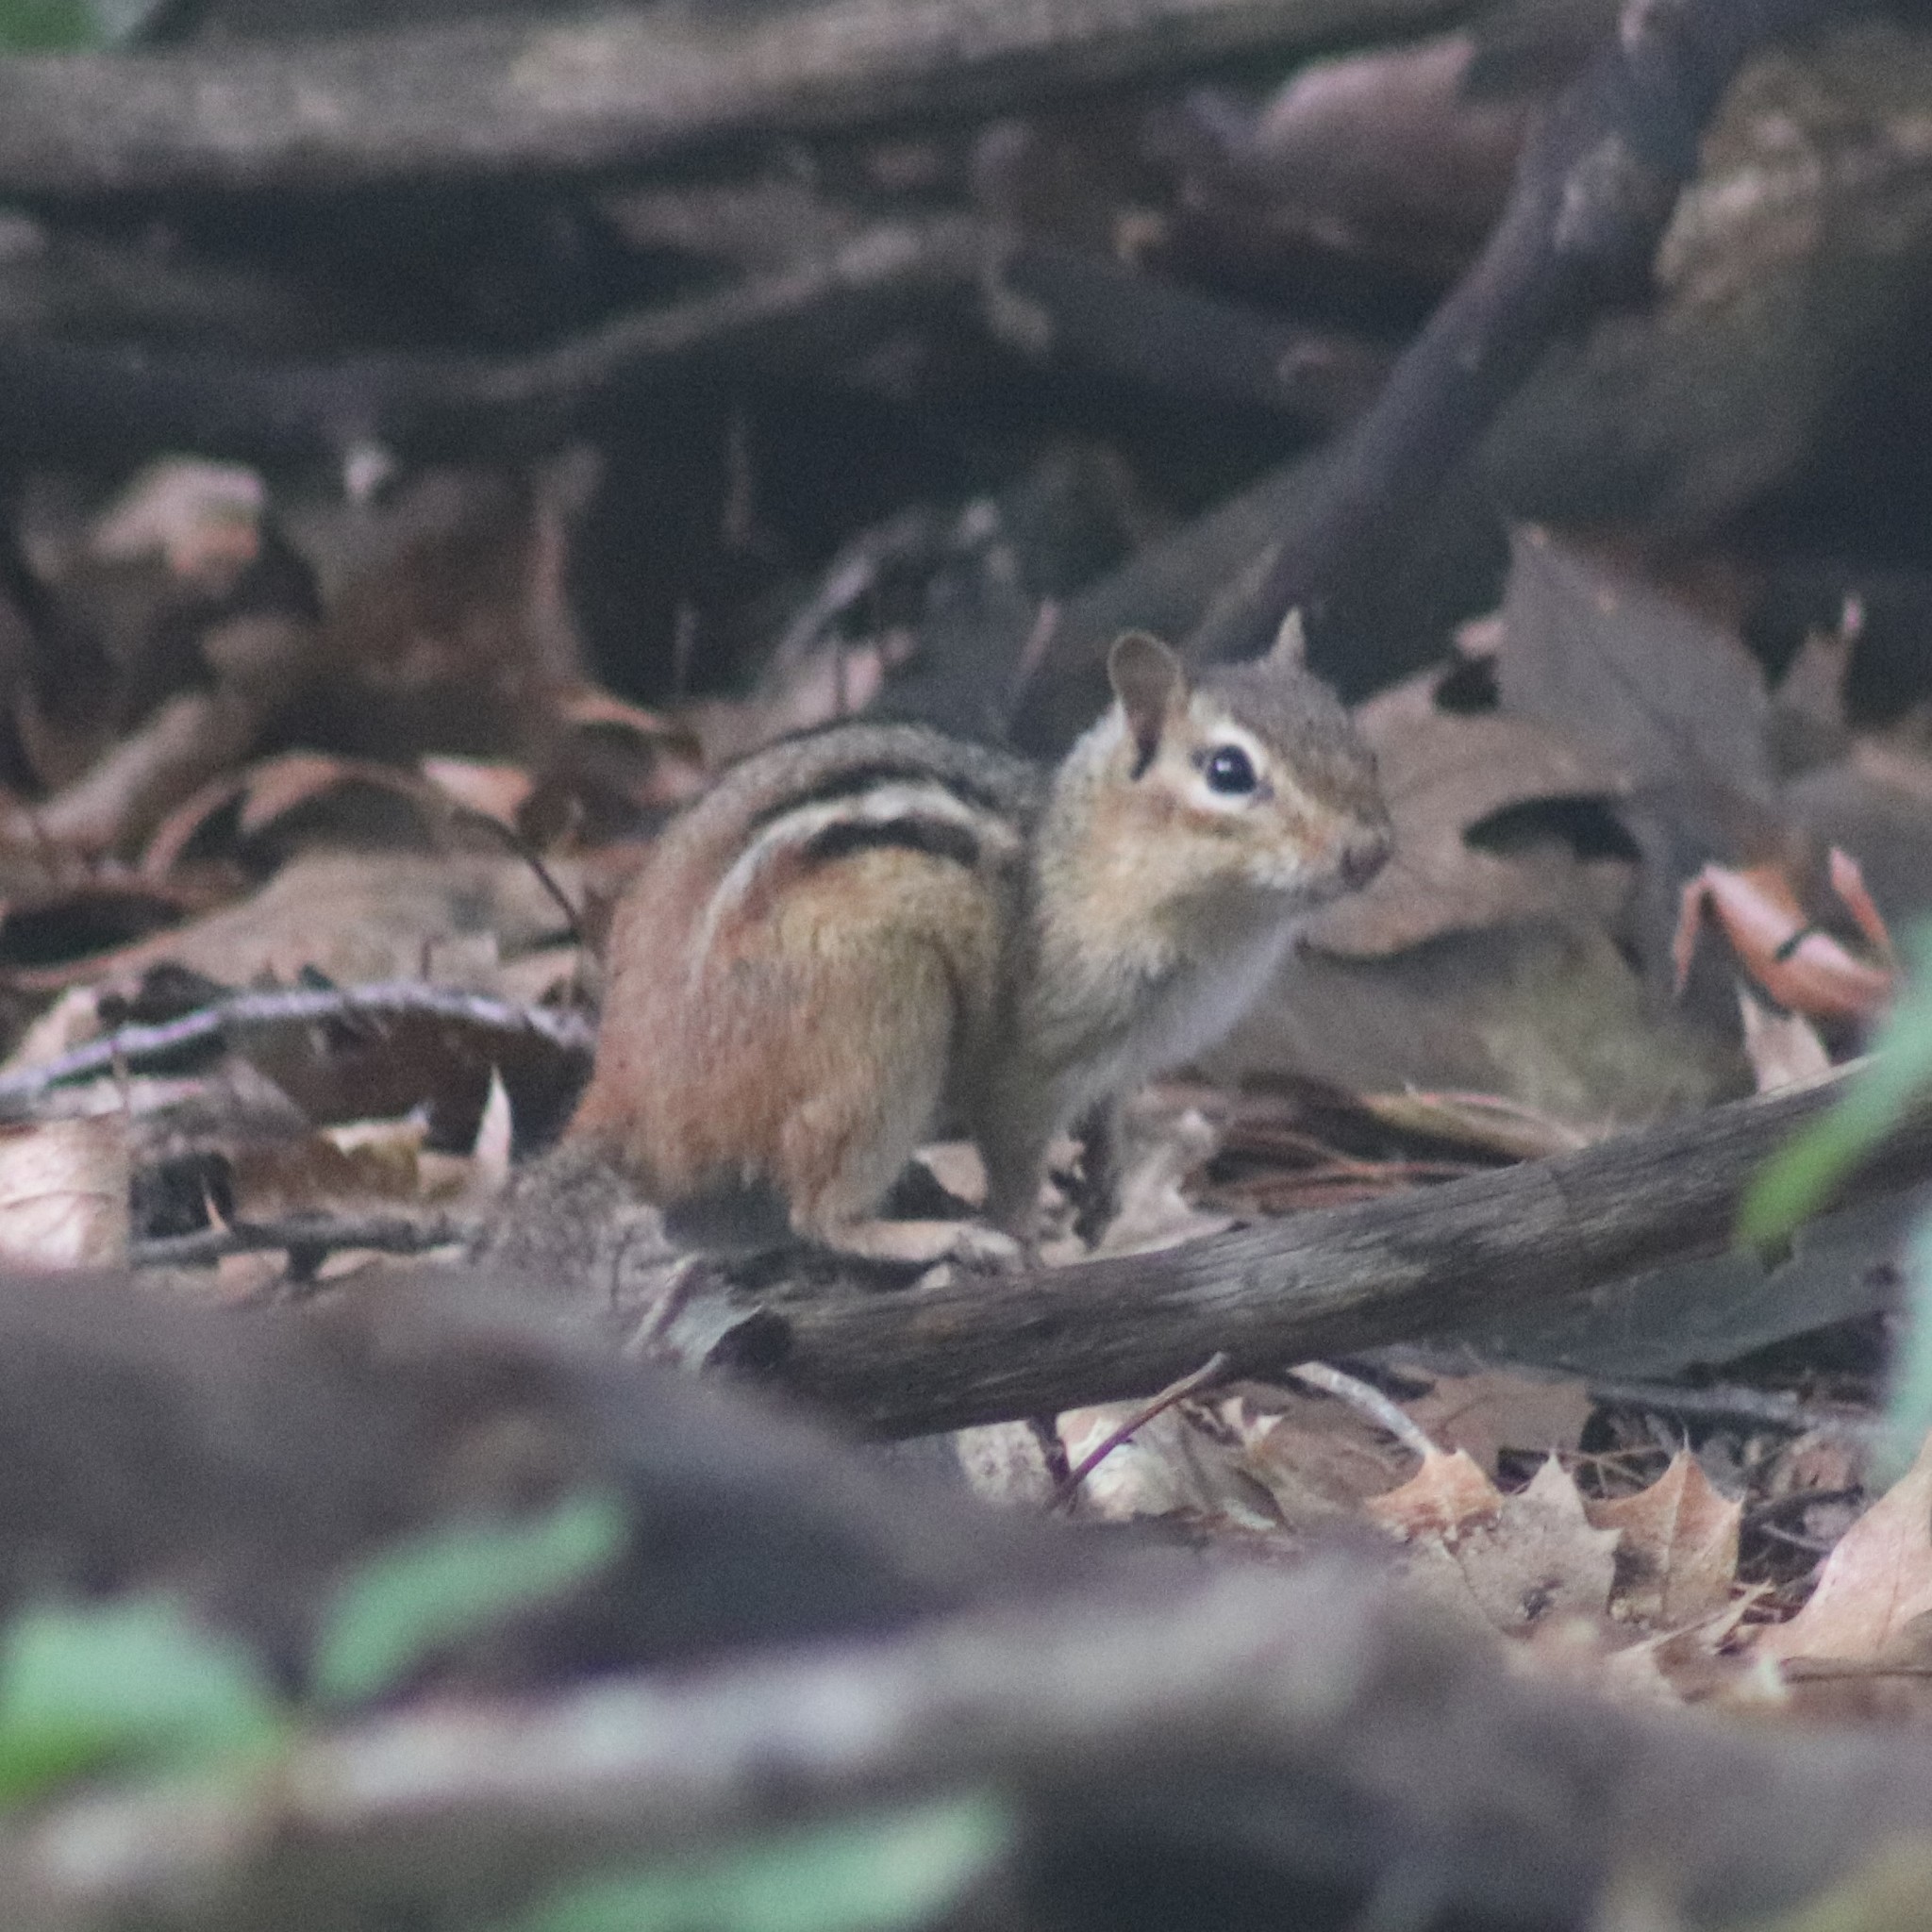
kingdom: Animalia
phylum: Chordata
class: Mammalia
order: Rodentia
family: Sciuridae
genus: Tamias
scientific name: Tamias striatus
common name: Eastern chipmunk
